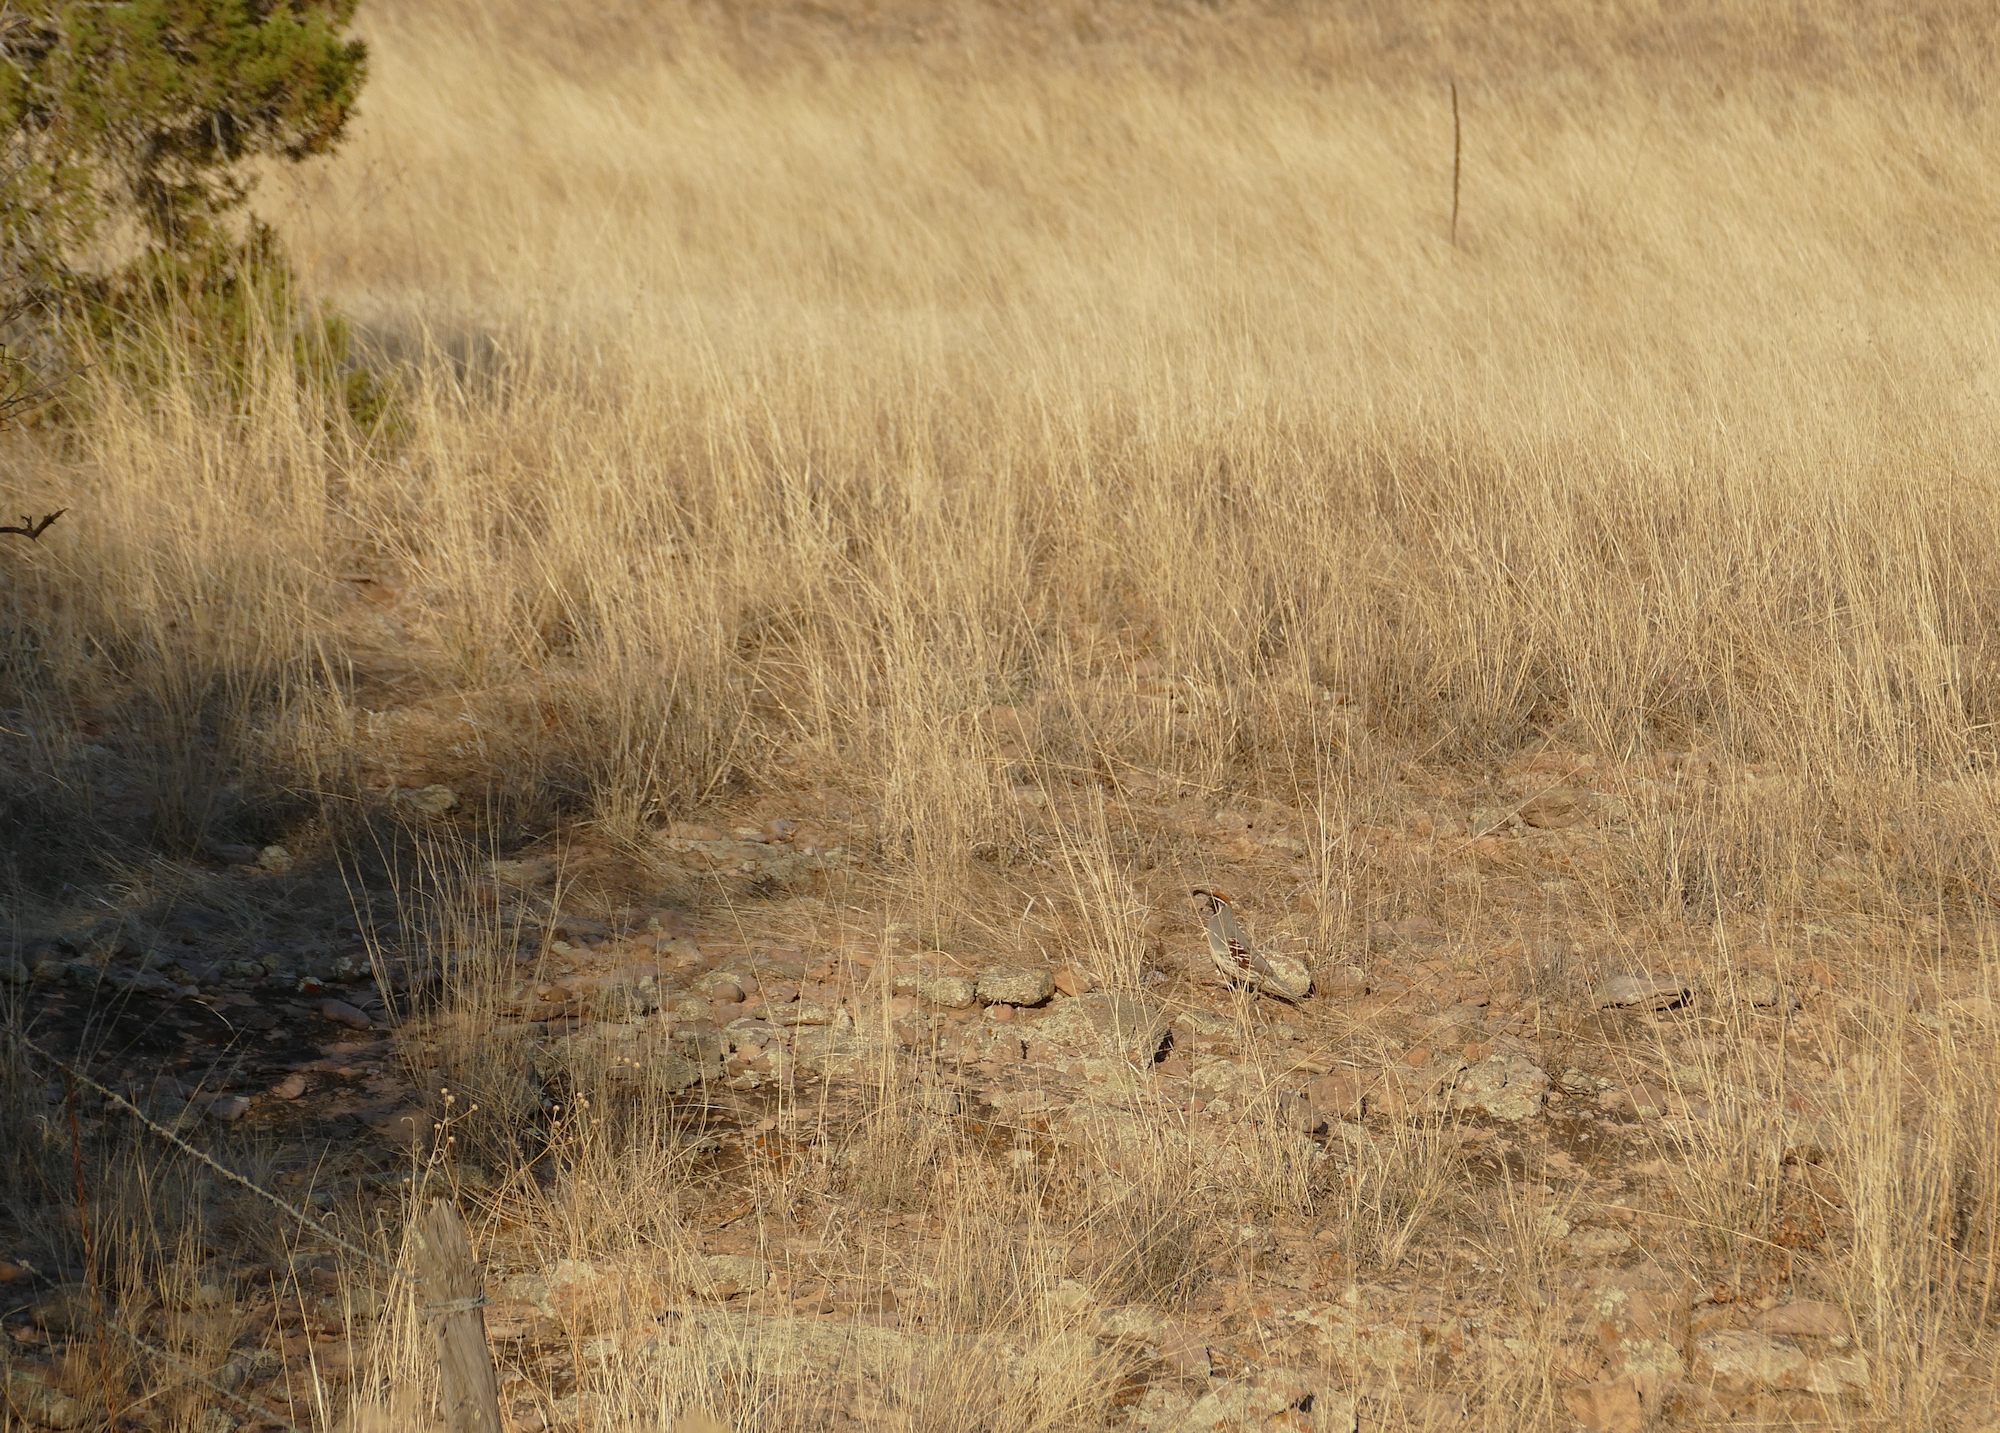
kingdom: Animalia
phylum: Chordata
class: Aves
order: Galliformes
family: Odontophoridae
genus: Callipepla
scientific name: Callipepla gambelii
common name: Gambel's quail
